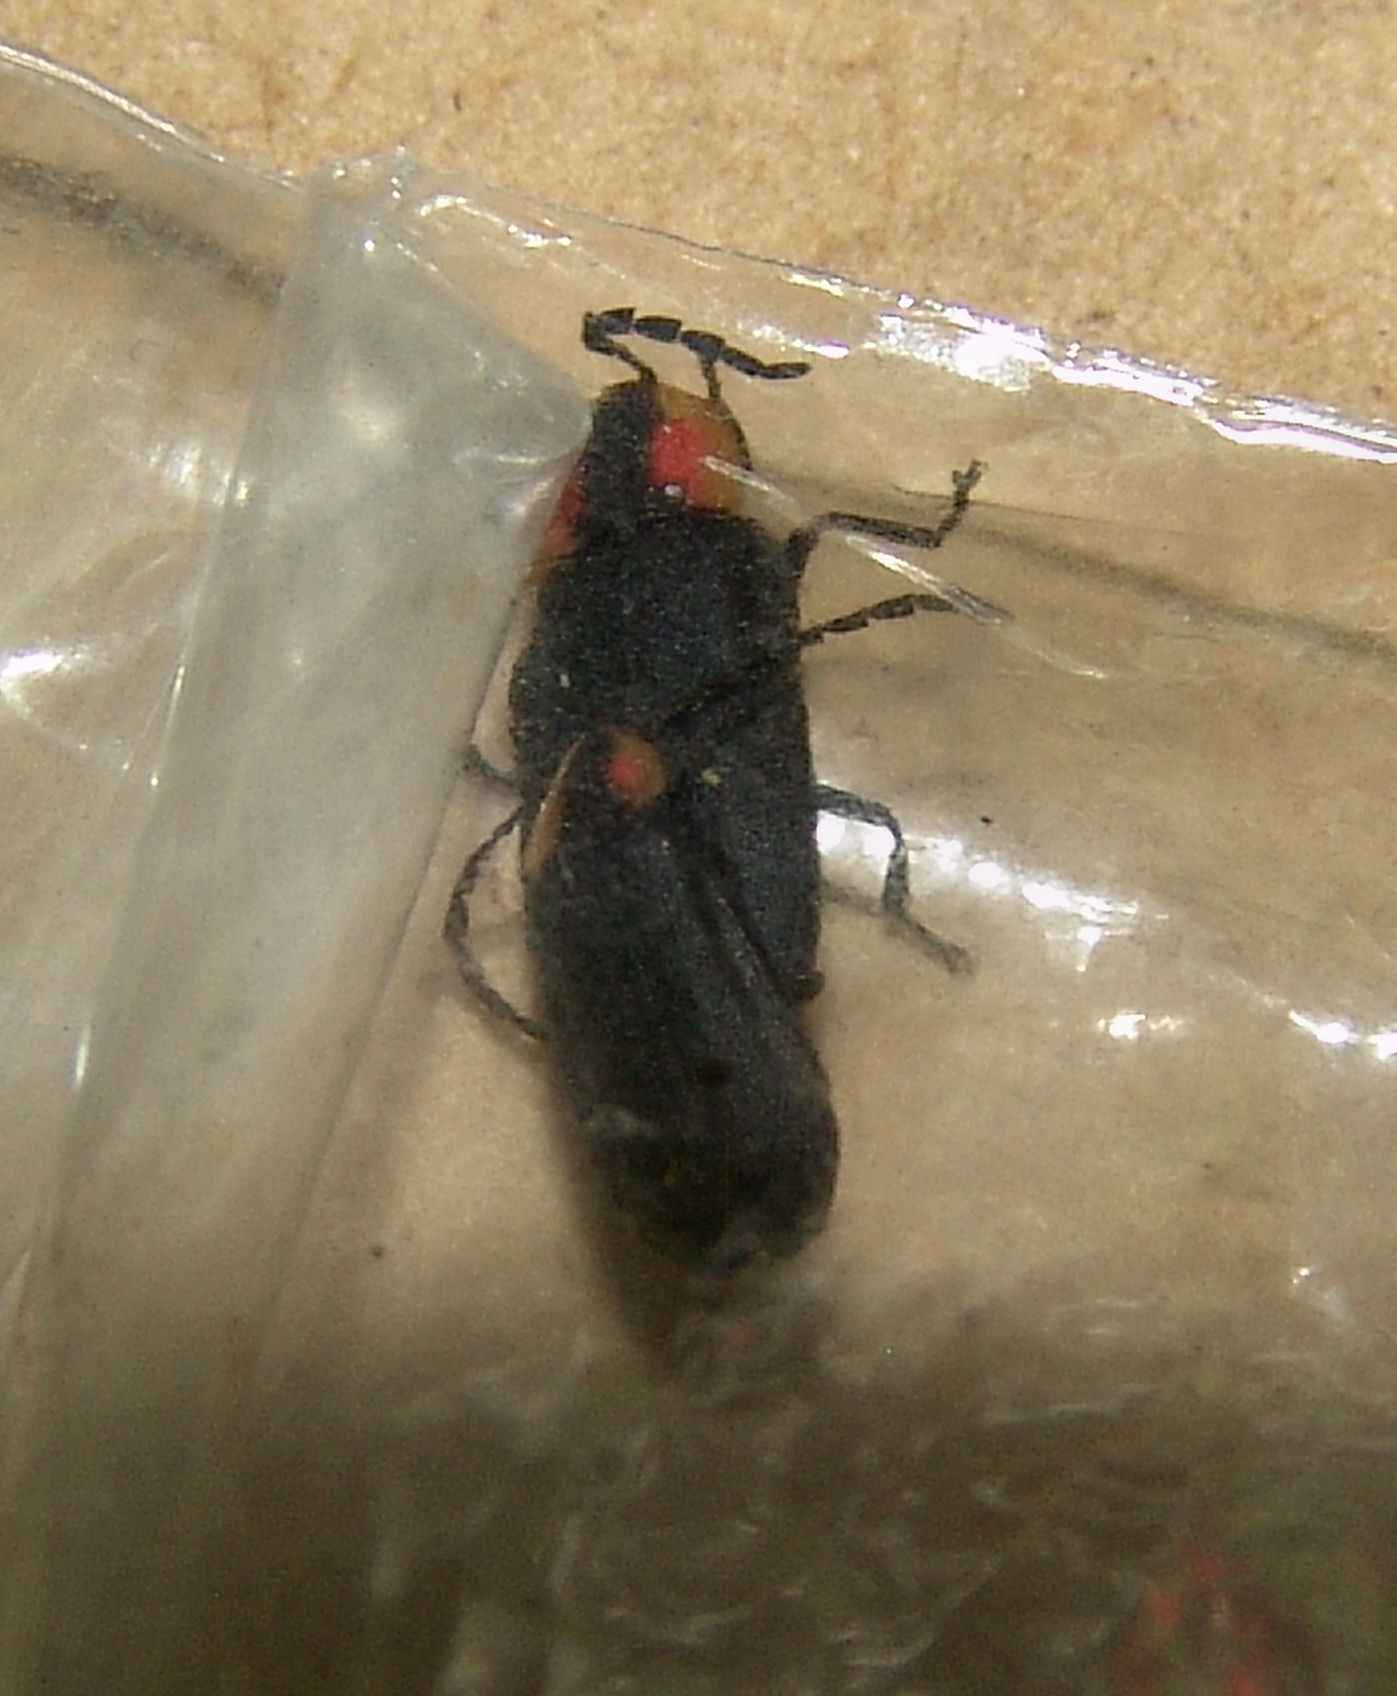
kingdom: Animalia
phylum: Arthropoda
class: Insecta
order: Coleoptera
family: Lampyridae
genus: Lucidota
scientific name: Lucidota atra
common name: Black firefly
